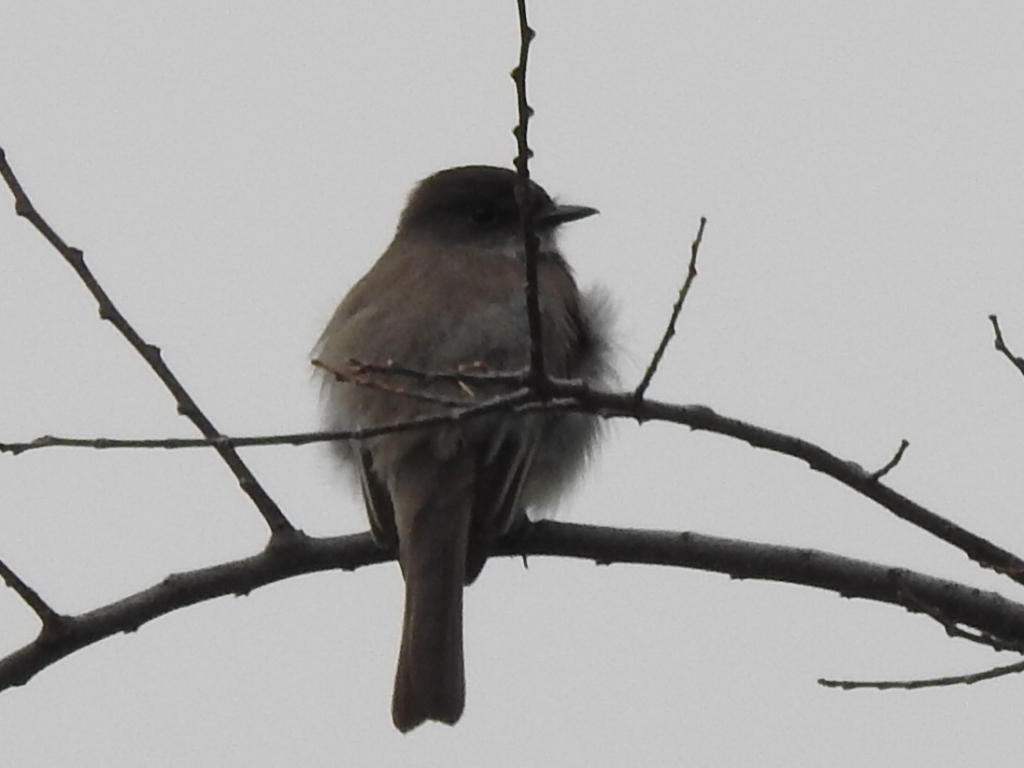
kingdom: Animalia
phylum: Chordata
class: Aves
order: Passeriformes
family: Tyrannidae
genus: Sayornis
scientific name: Sayornis phoebe
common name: Eastern phoebe
